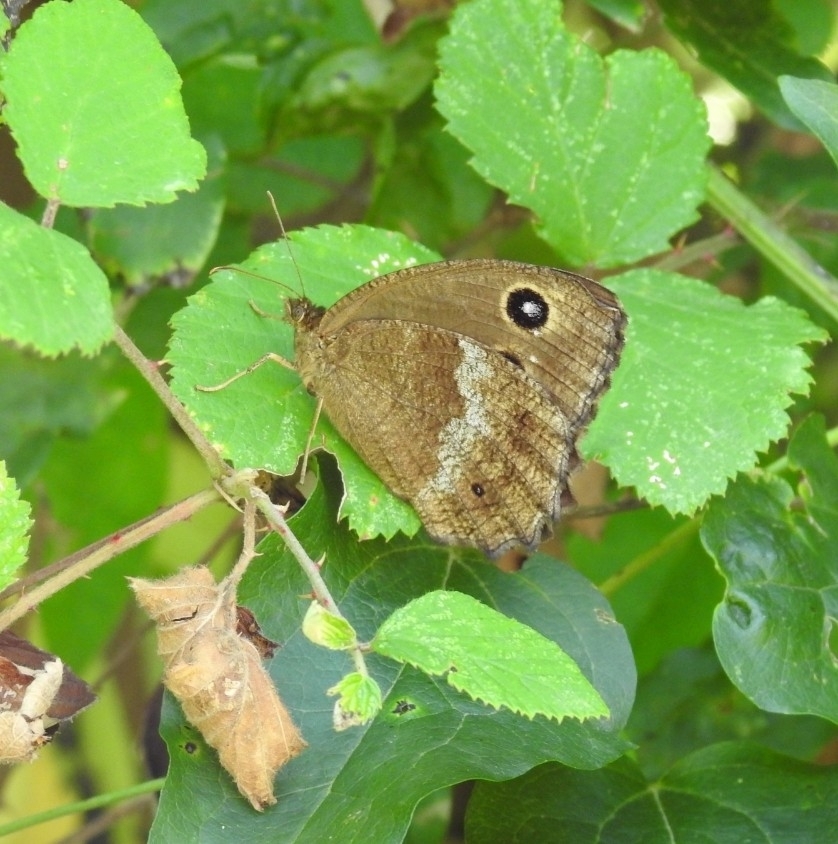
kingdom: Animalia
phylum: Arthropoda
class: Insecta
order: Lepidoptera
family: Nymphalidae
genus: Minois
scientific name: Minois dryas
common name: Dryad
